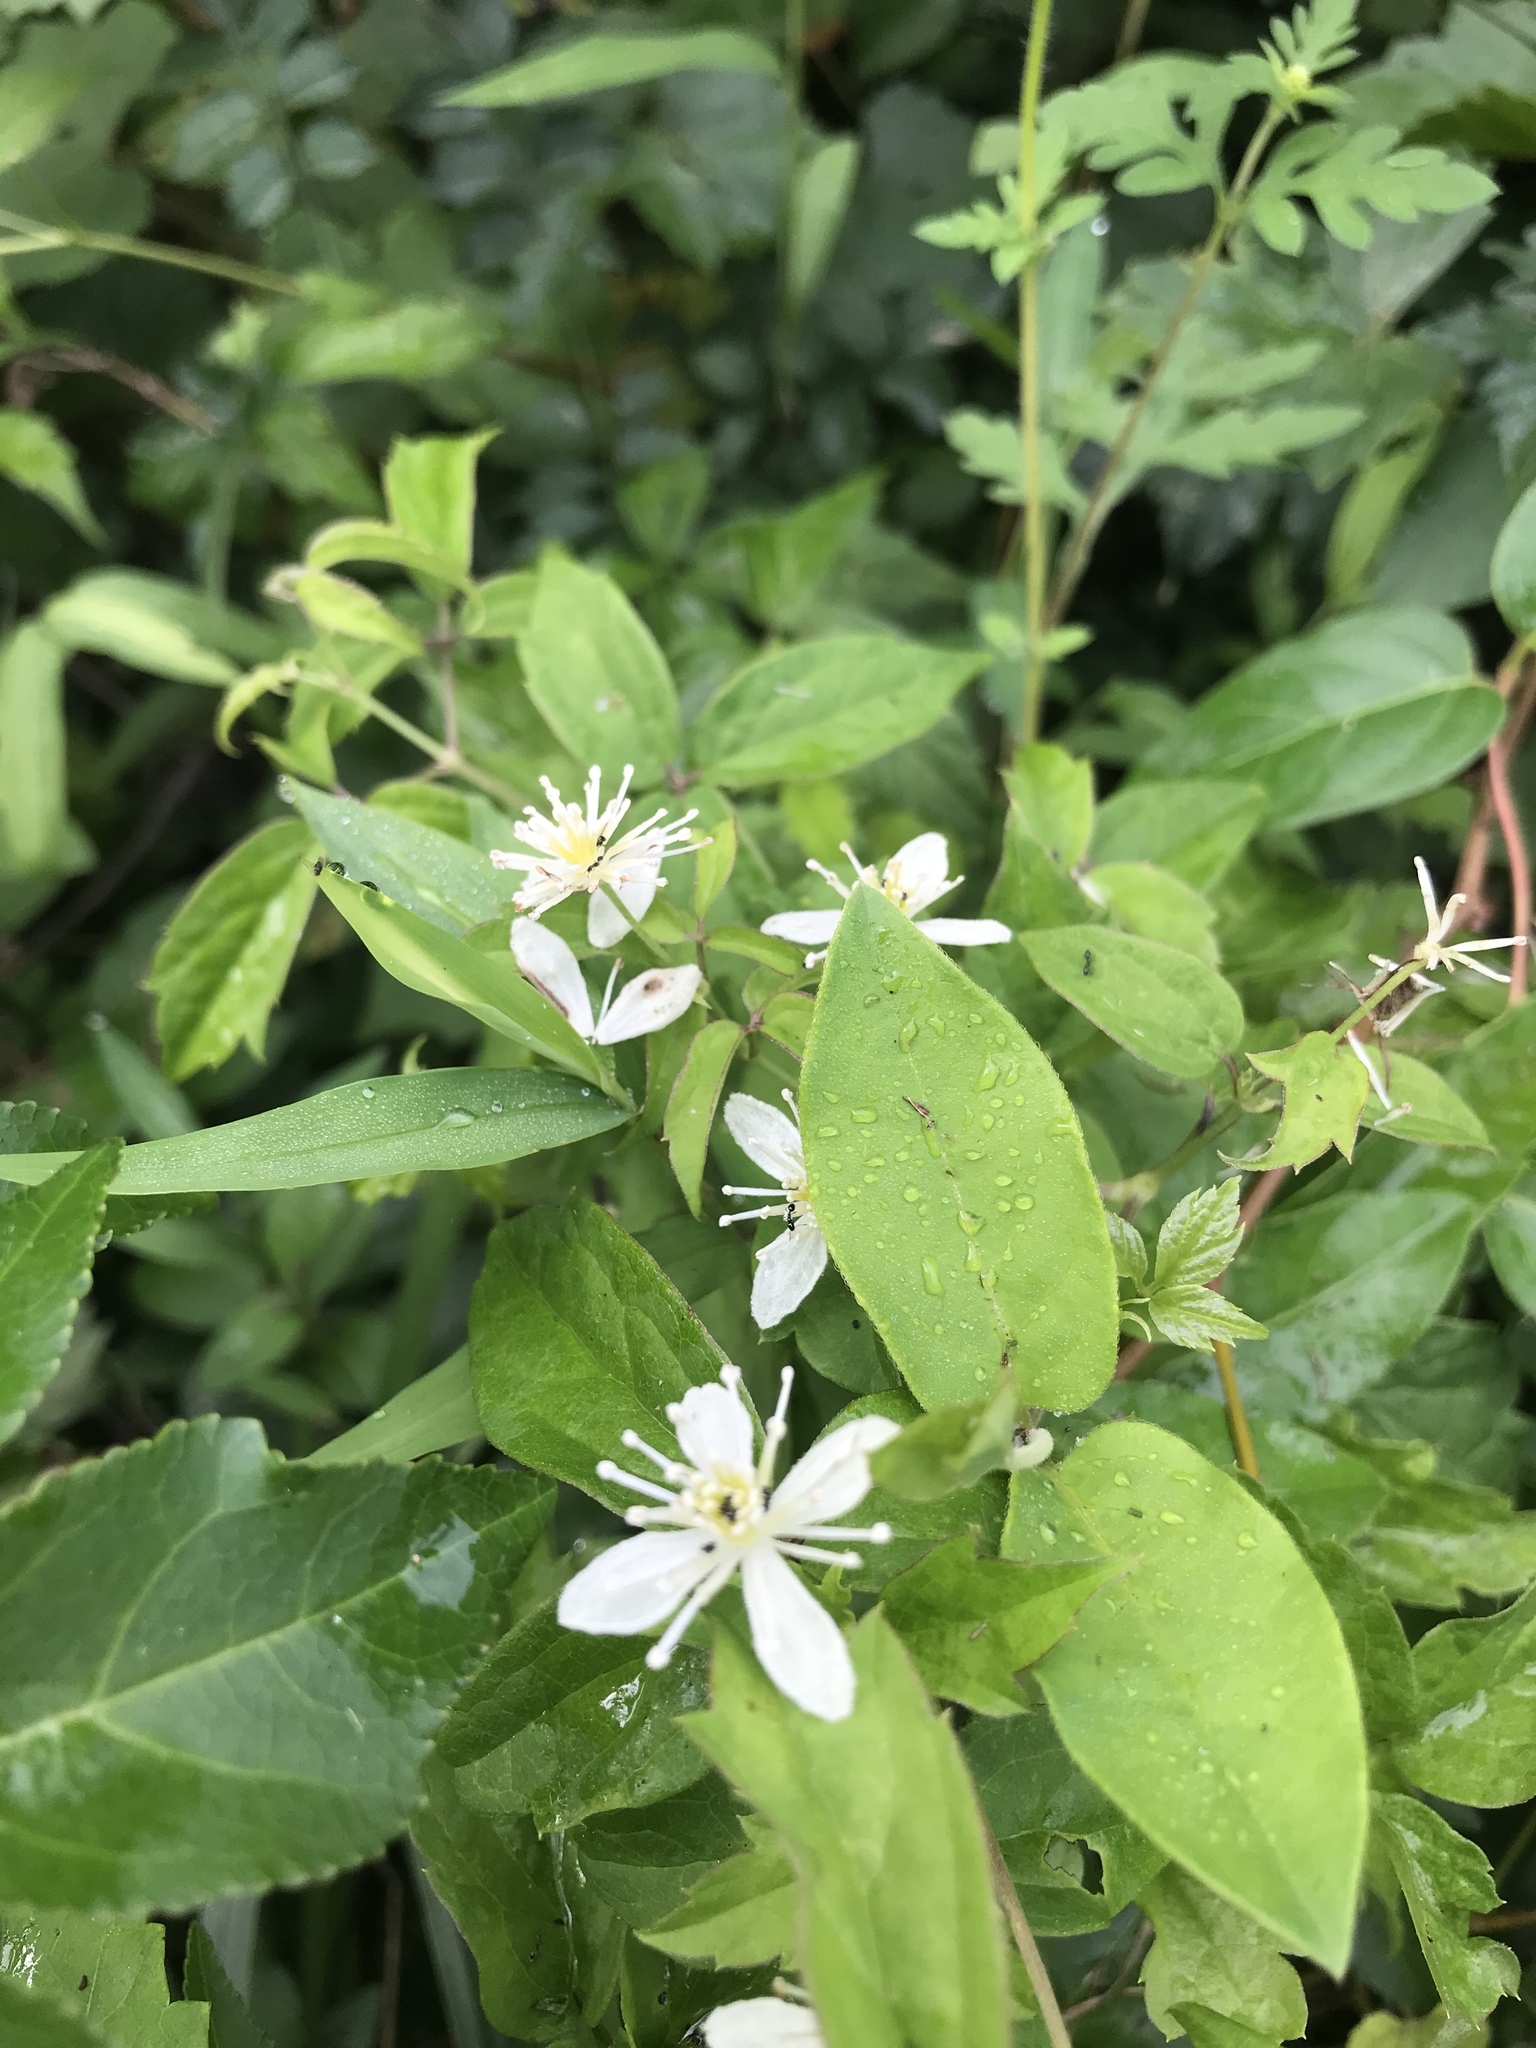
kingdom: Plantae
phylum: Tracheophyta
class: Magnoliopsida
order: Ranunculales
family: Ranunculaceae
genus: Clematis
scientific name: Clematis virginiana
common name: Virgin's-bower
